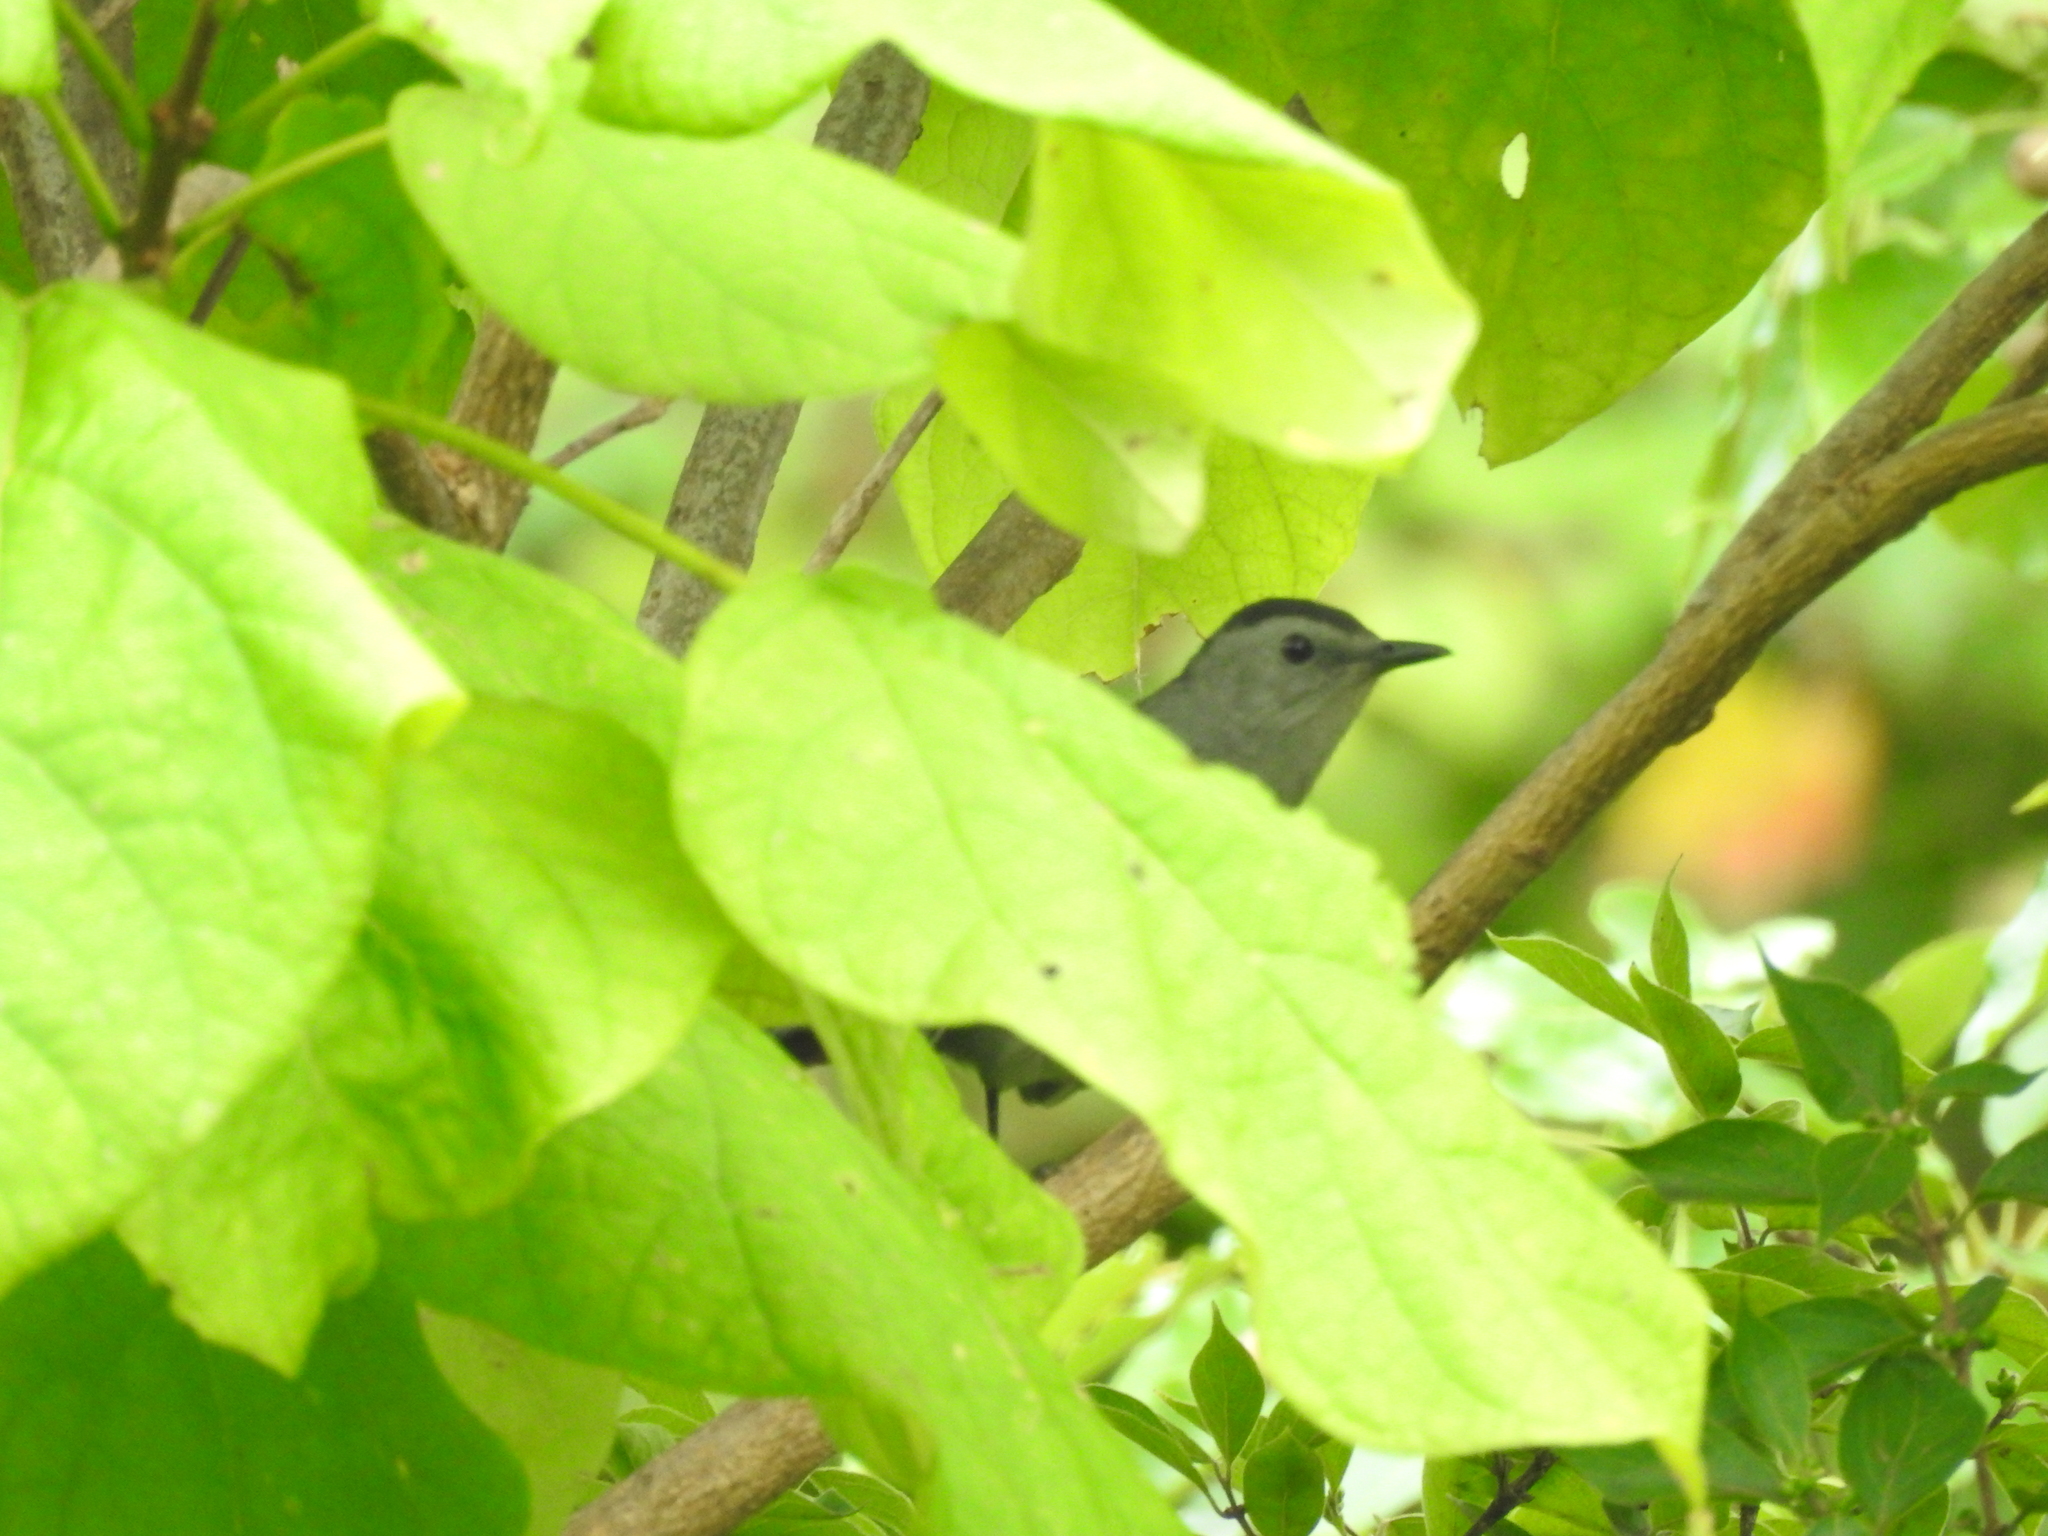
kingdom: Animalia
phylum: Chordata
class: Aves
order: Passeriformes
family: Mimidae
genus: Dumetella
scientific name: Dumetella carolinensis
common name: Gray catbird
